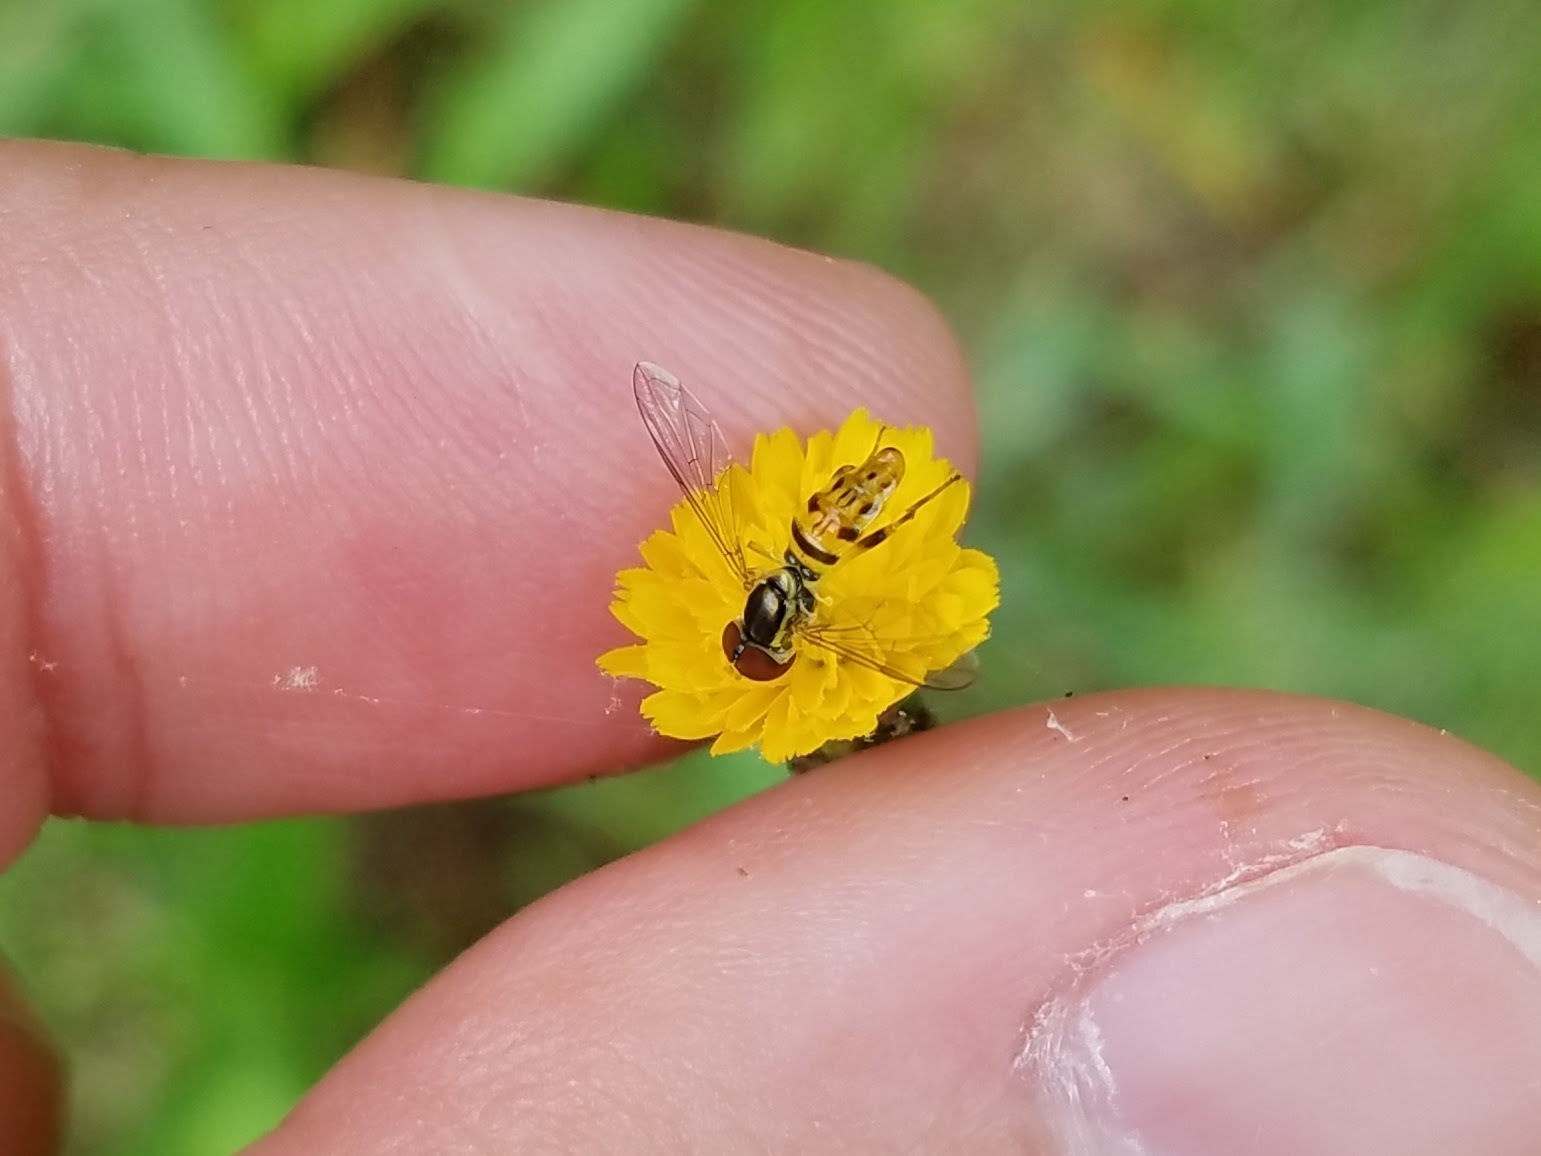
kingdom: Animalia
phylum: Arthropoda
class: Insecta
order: Diptera
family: Syrphidae
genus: Toxomerus
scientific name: Toxomerus geminatus
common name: Eastern calligrapher
